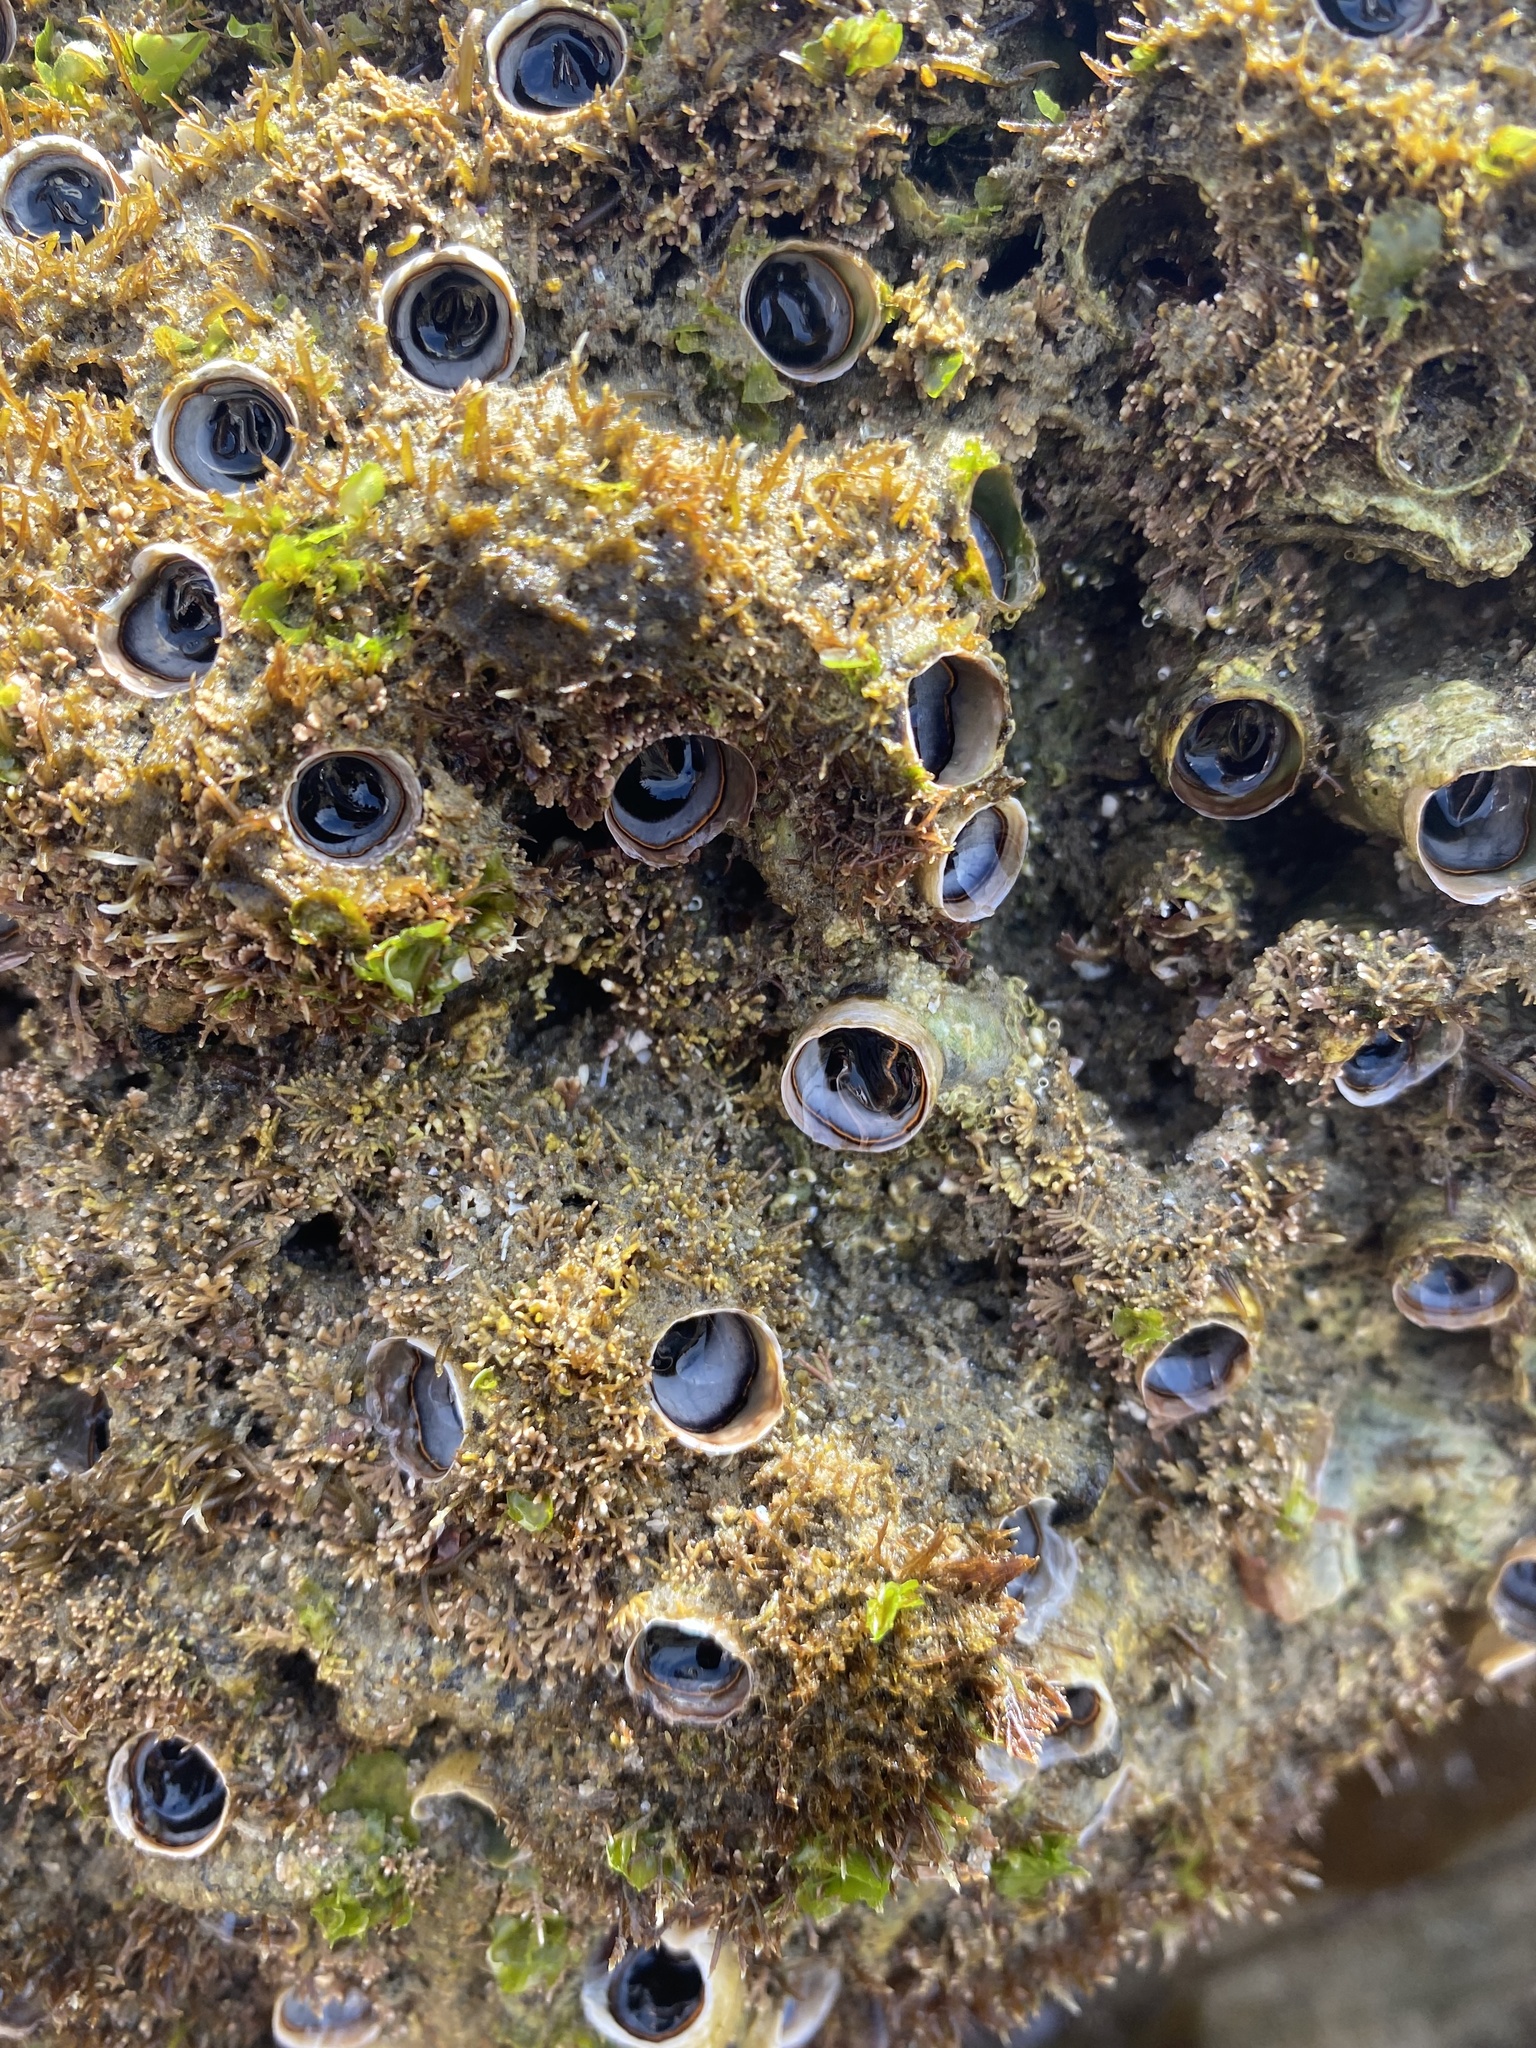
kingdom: Animalia
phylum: Mollusca
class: Gastropoda
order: Littorinimorpha
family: Vermetidae
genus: Thylacodes
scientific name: Thylacodes squamigerus
